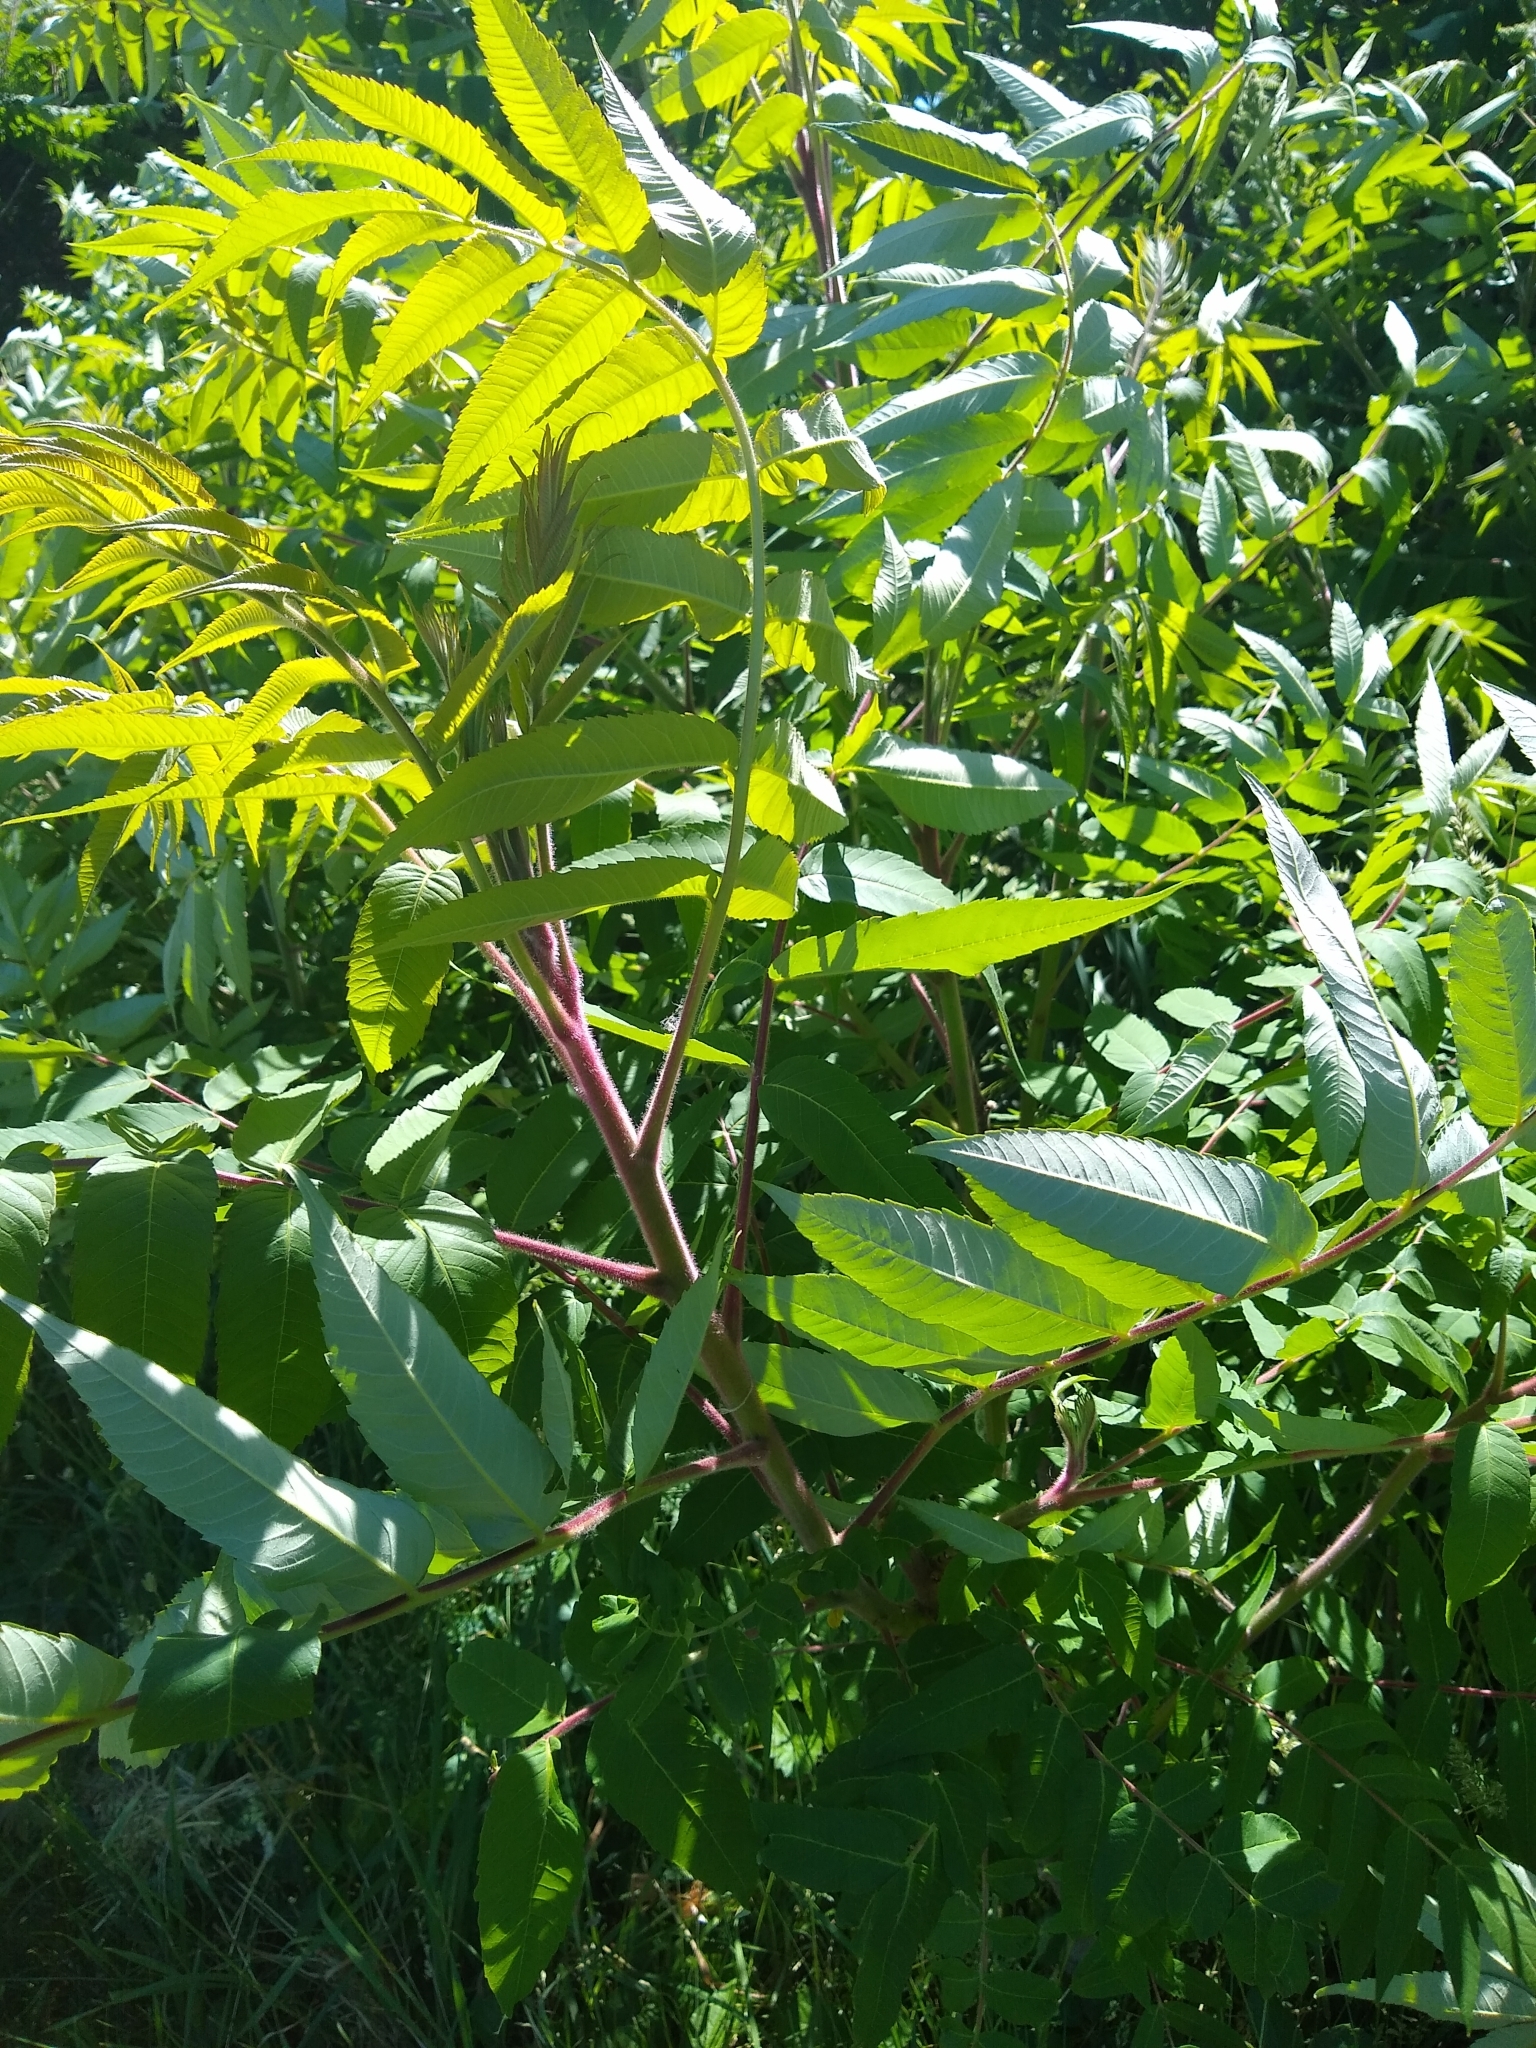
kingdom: Plantae
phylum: Tracheophyta
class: Magnoliopsida
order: Sapindales
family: Anacardiaceae
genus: Rhus
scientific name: Rhus typhina
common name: Staghorn sumac
